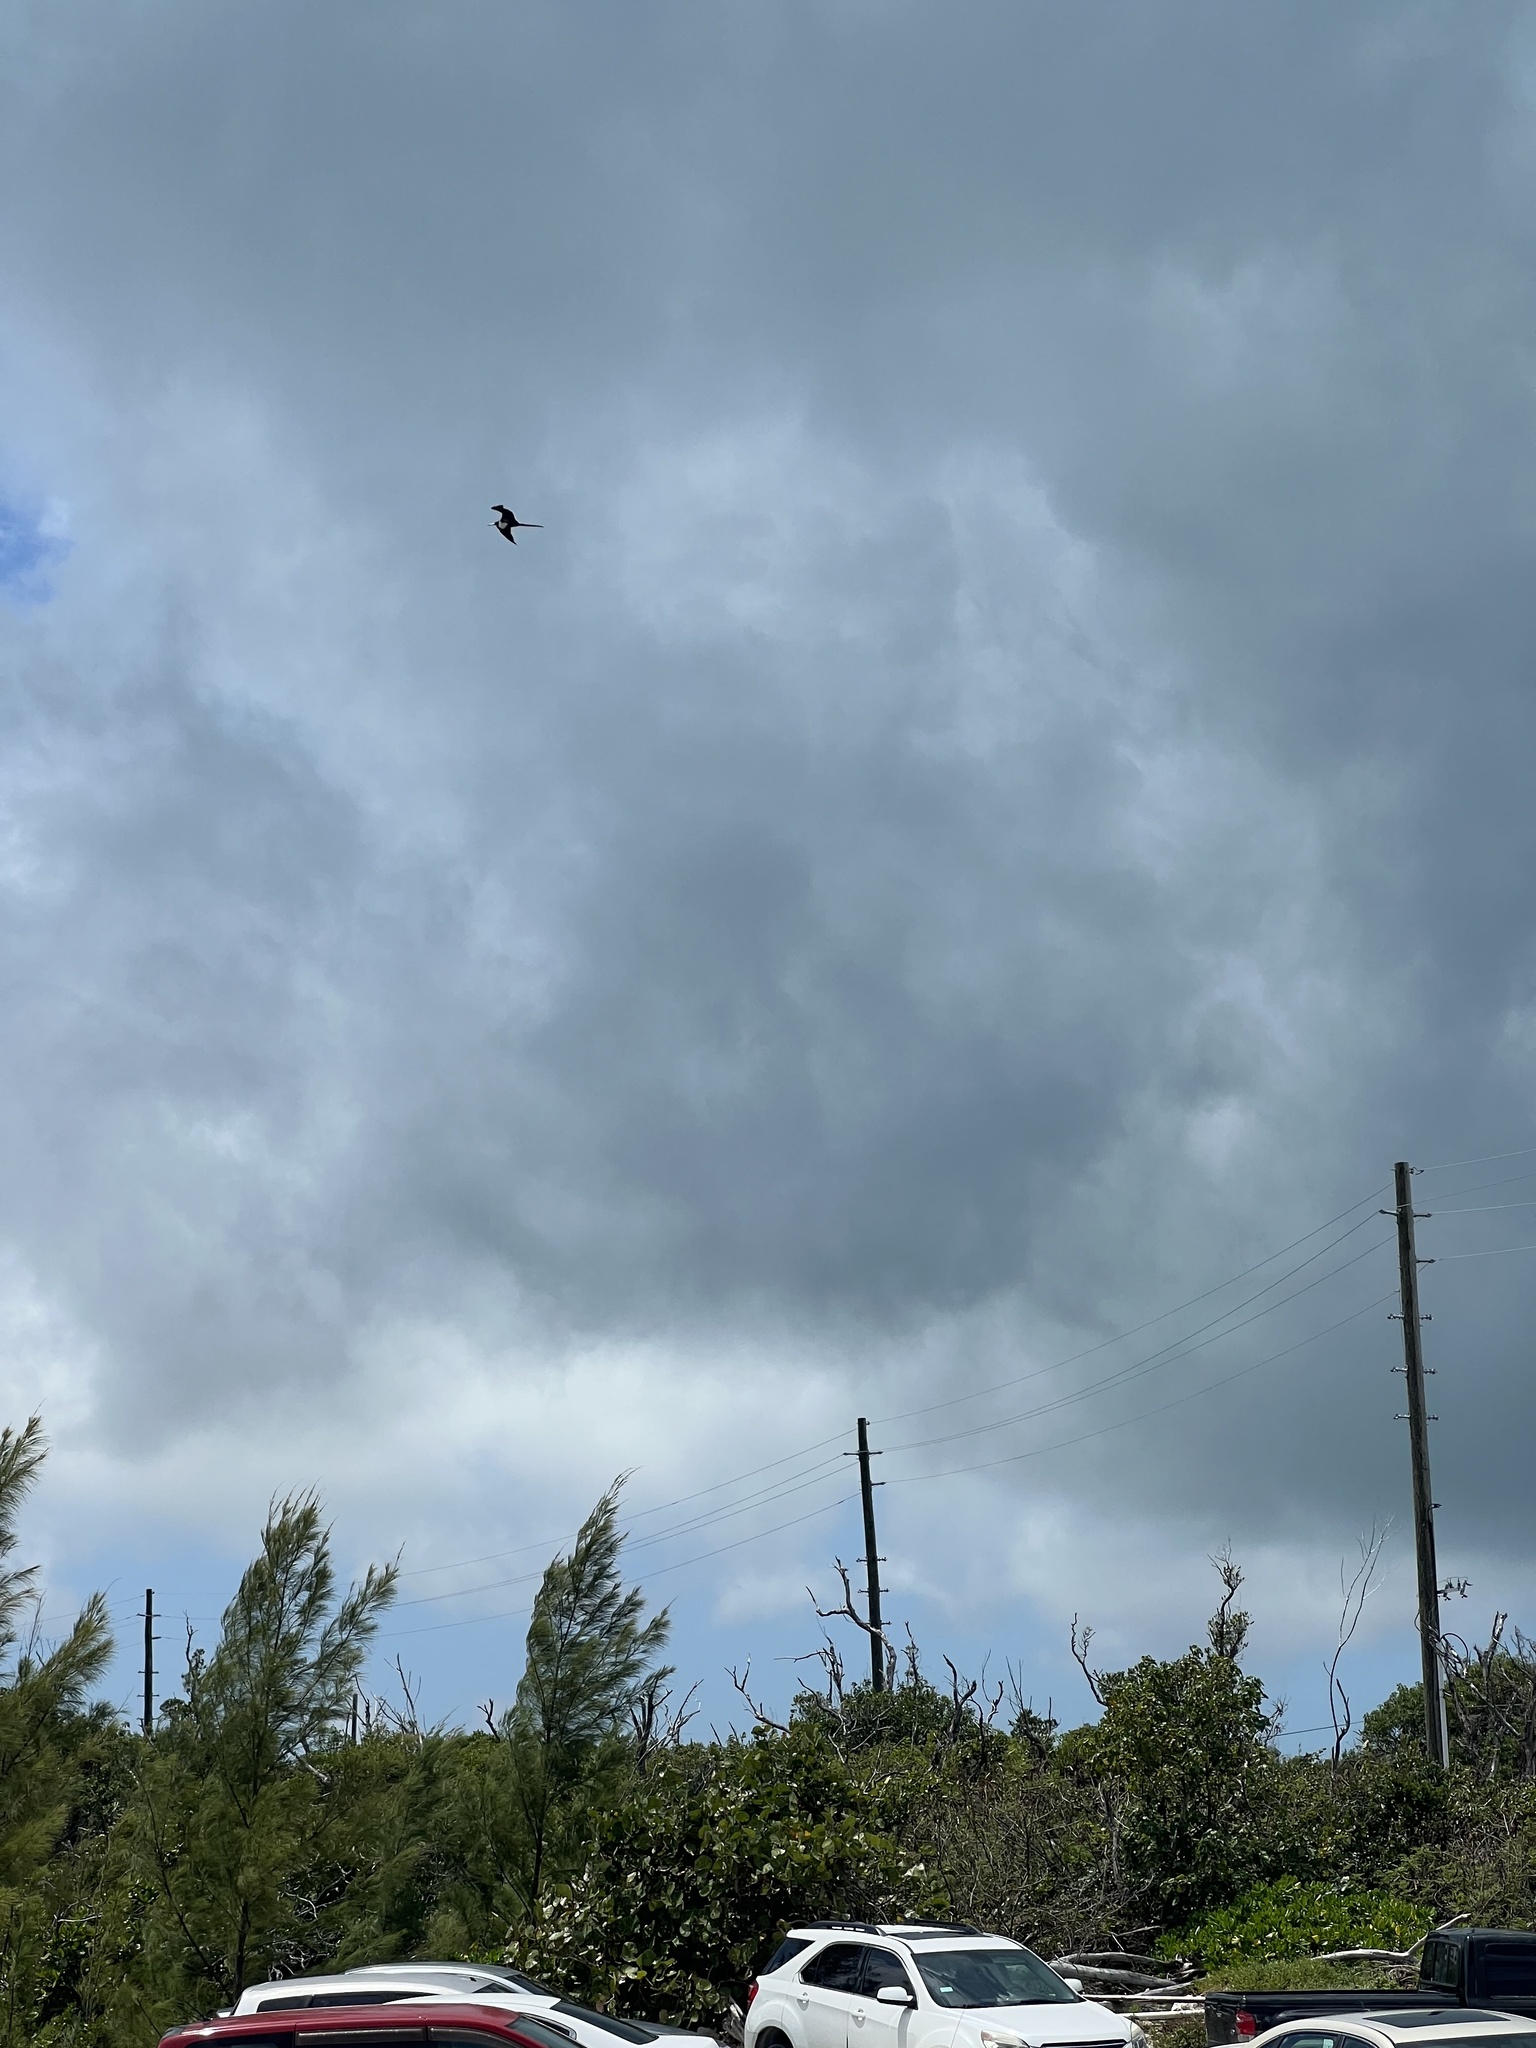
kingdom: Animalia
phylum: Chordata
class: Aves
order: Suliformes
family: Fregatidae
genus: Fregata
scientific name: Fregata magnificens
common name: Magnificent frigatebird
